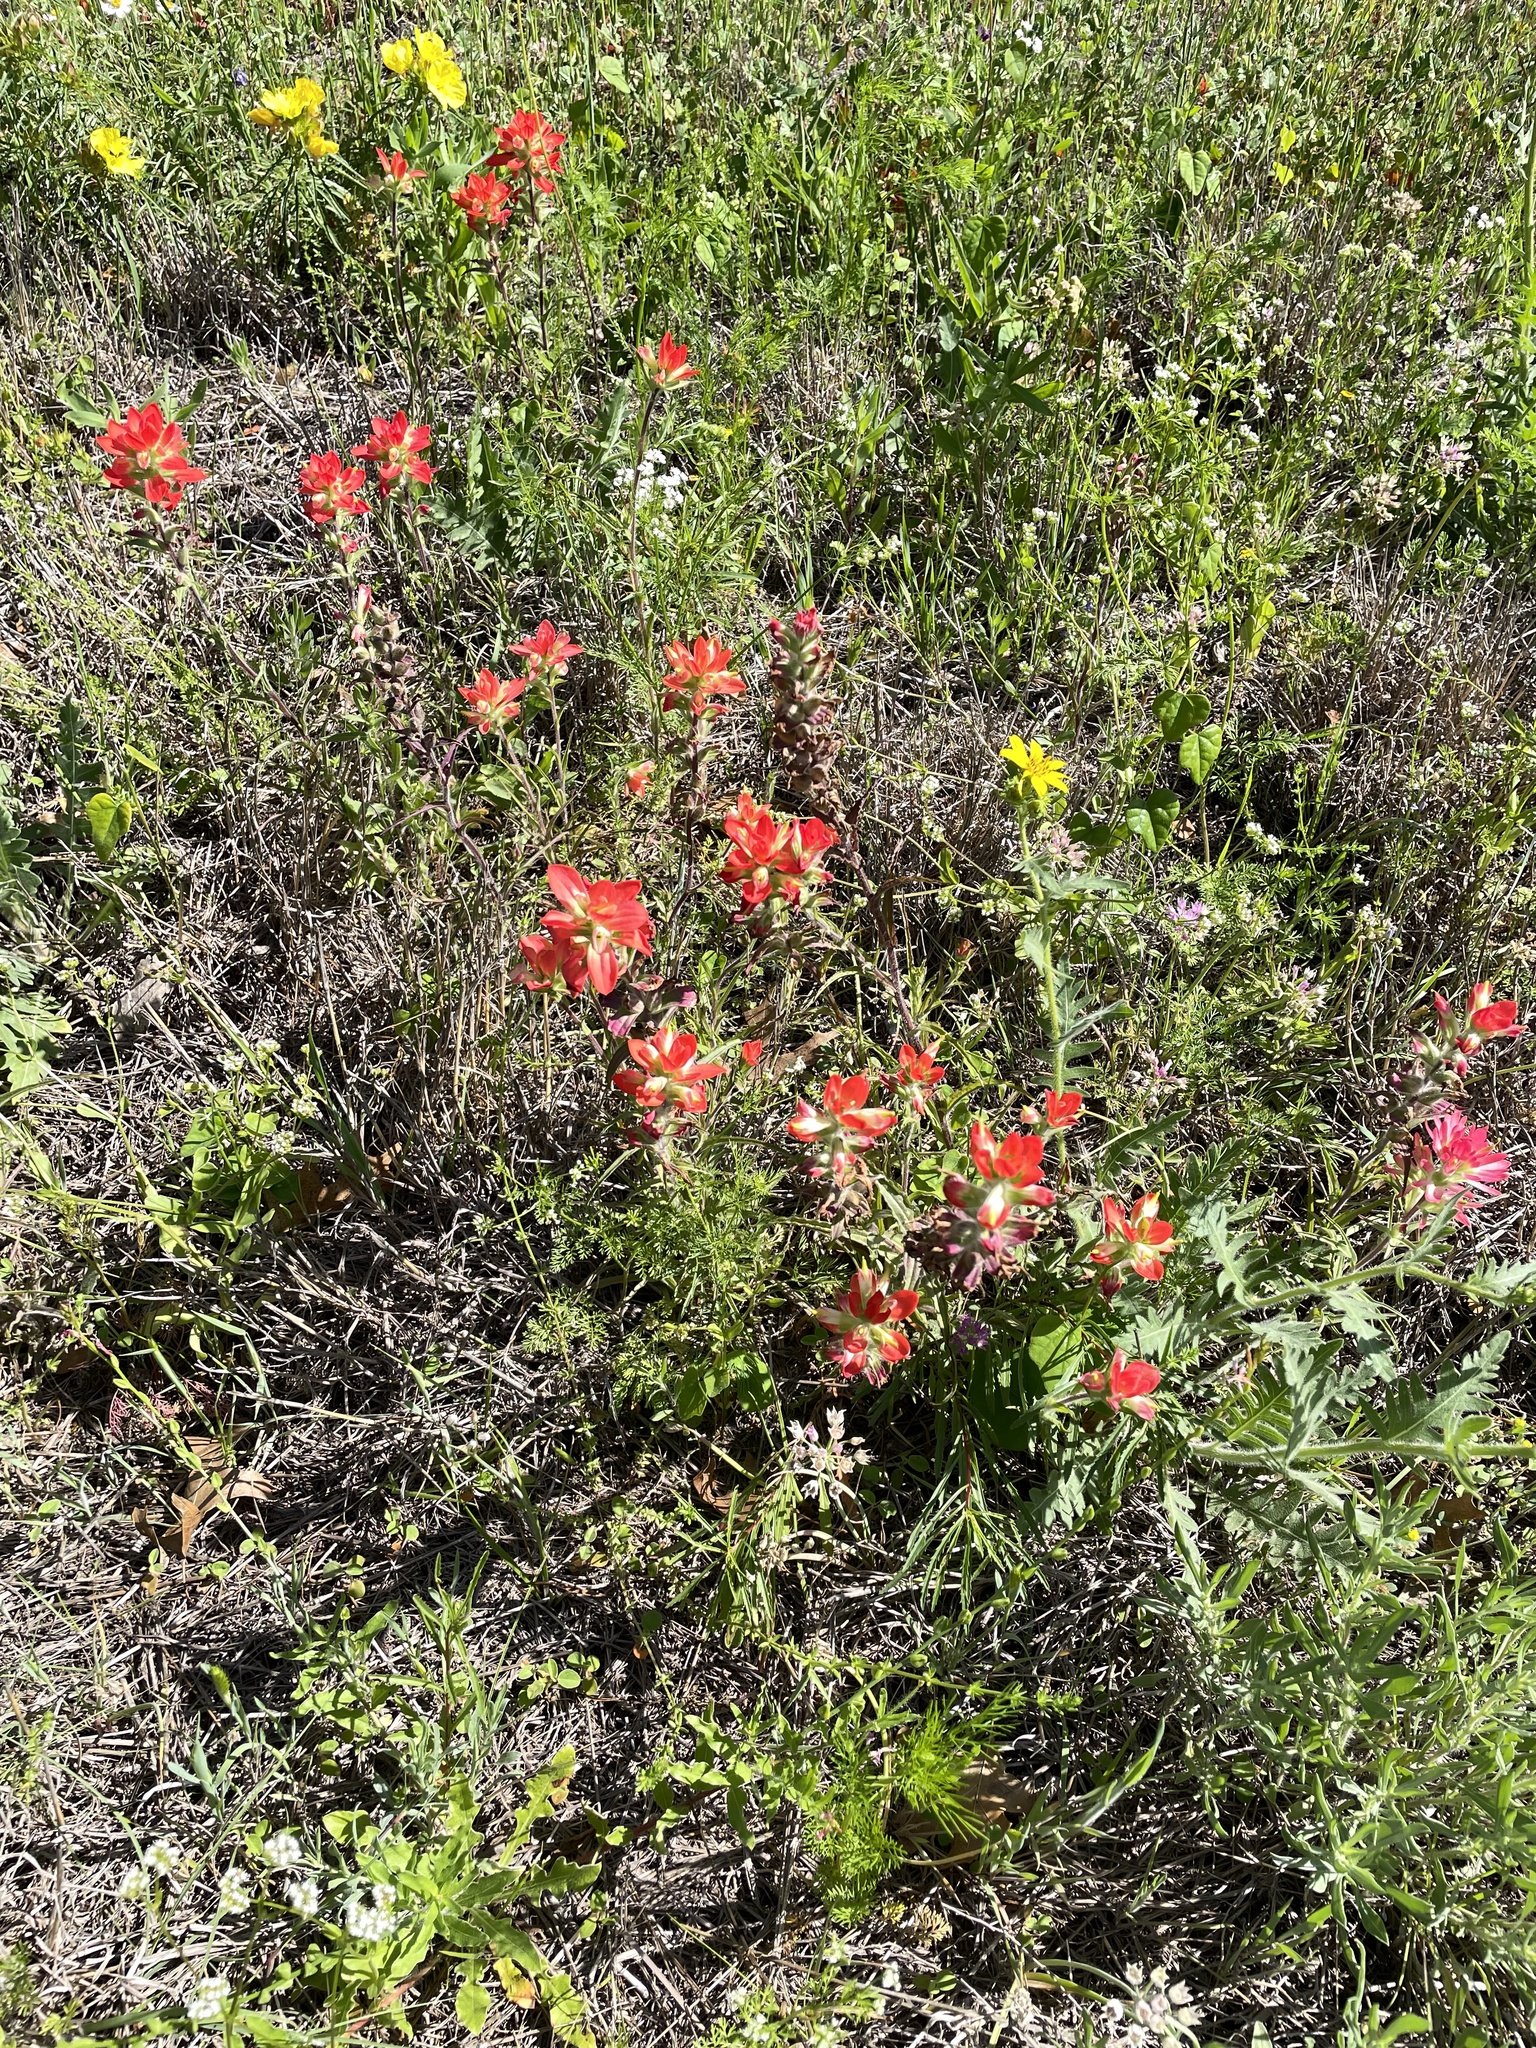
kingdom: Plantae
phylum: Tracheophyta
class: Magnoliopsida
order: Lamiales
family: Orobanchaceae
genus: Castilleja
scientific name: Castilleja indivisa
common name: Texas paintbrush
